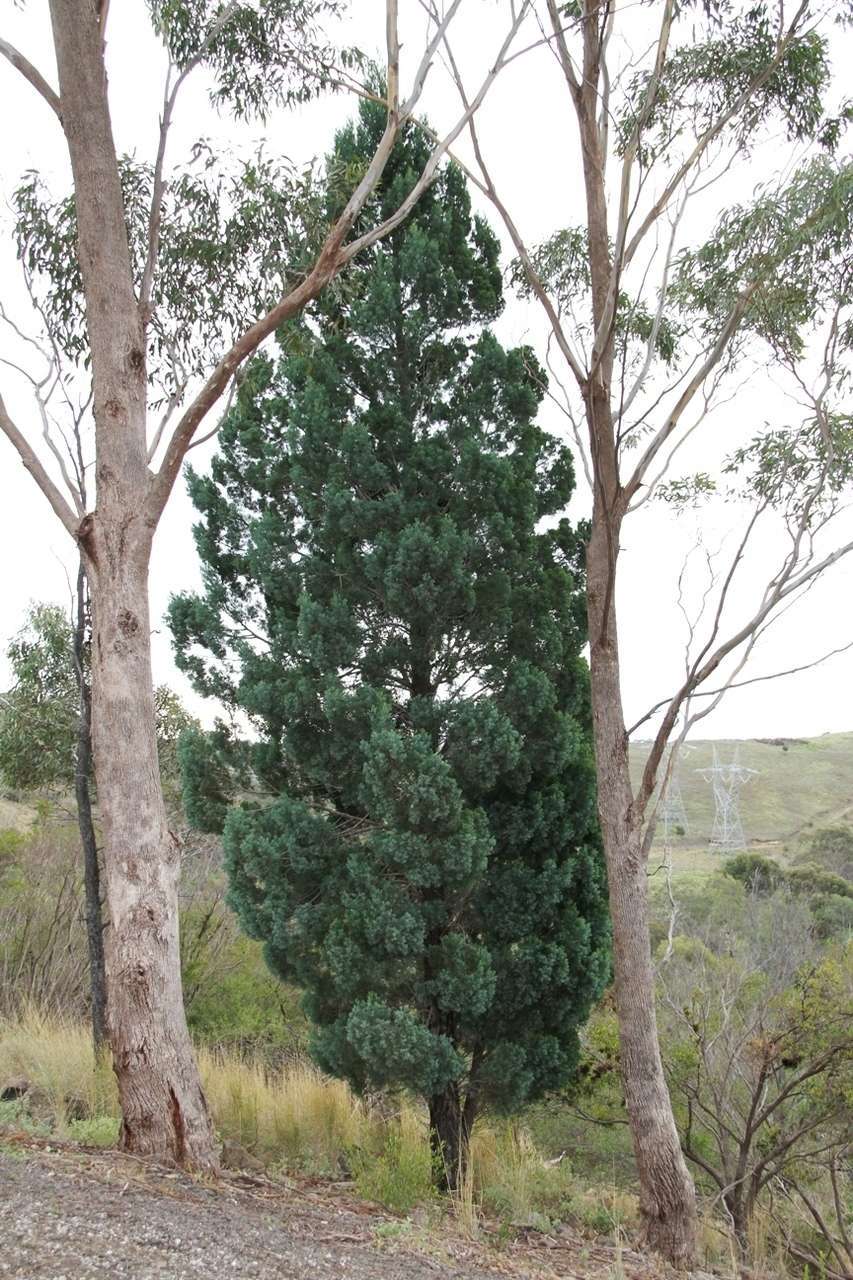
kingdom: Plantae
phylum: Tracheophyta
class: Pinopsida
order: Pinales
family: Cupressaceae
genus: Callitris
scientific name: Callitris columellaris
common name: White cypress-pine
